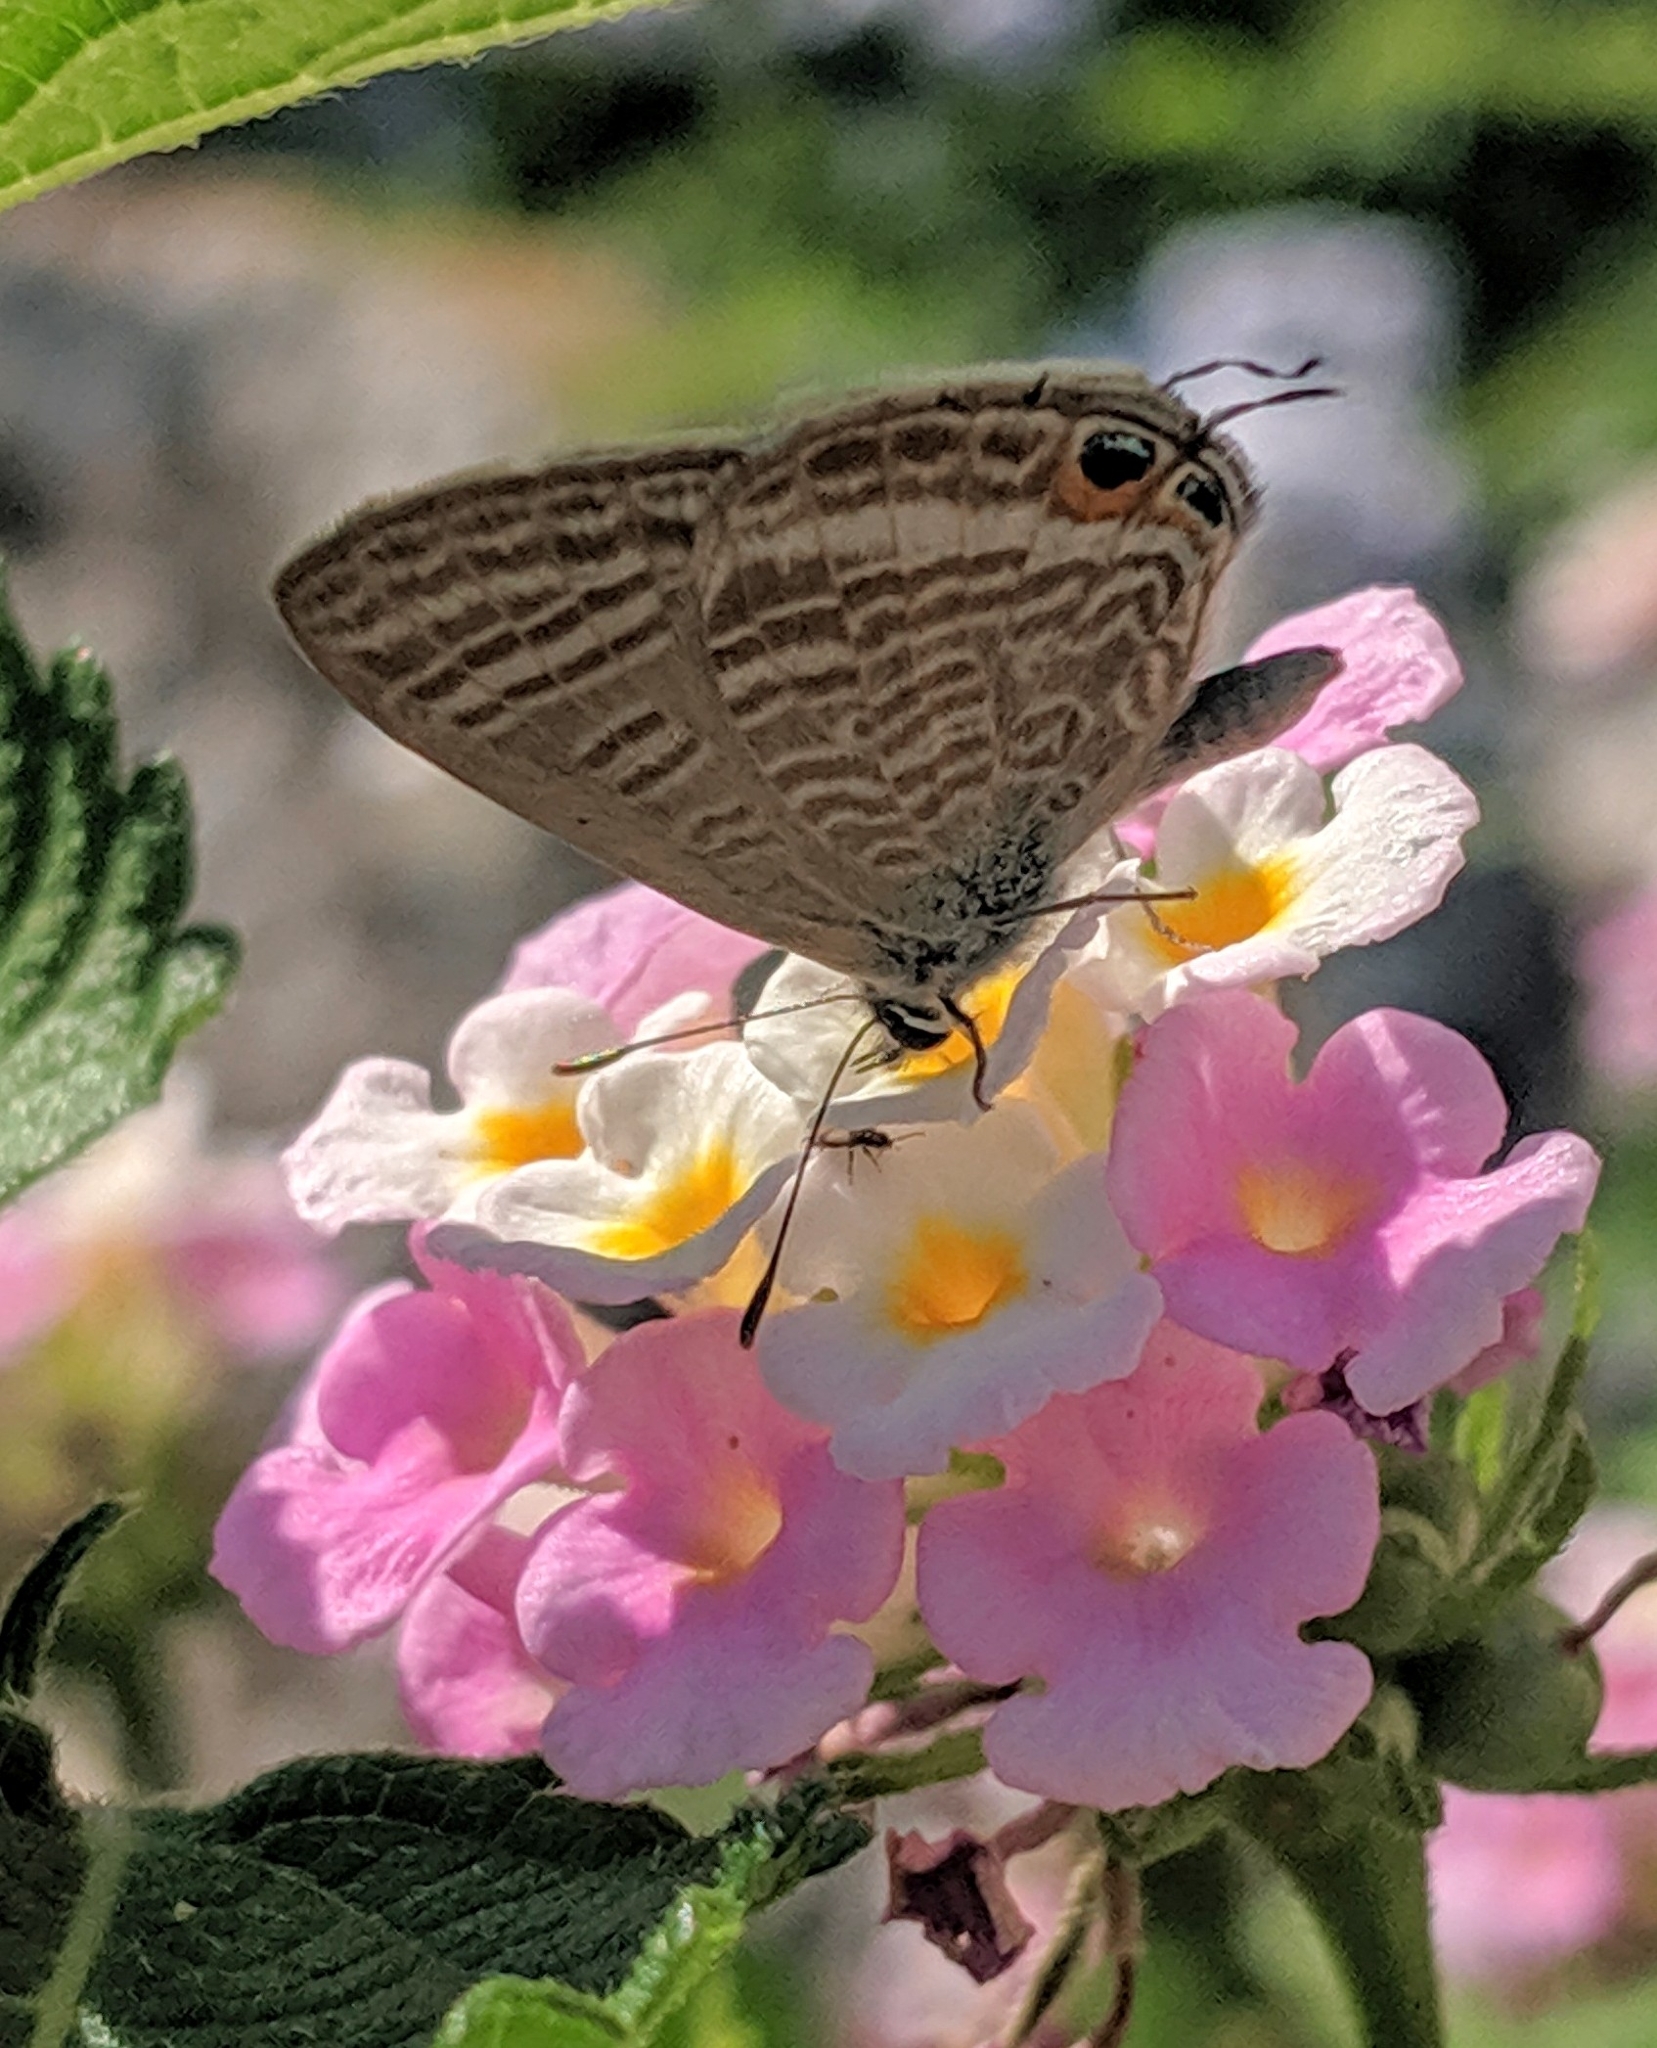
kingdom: Animalia
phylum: Arthropoda
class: Insecta
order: Lepidoptera
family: Lycaenidae
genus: Lampides
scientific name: Lampides boeticus
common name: Long-tailed blue
